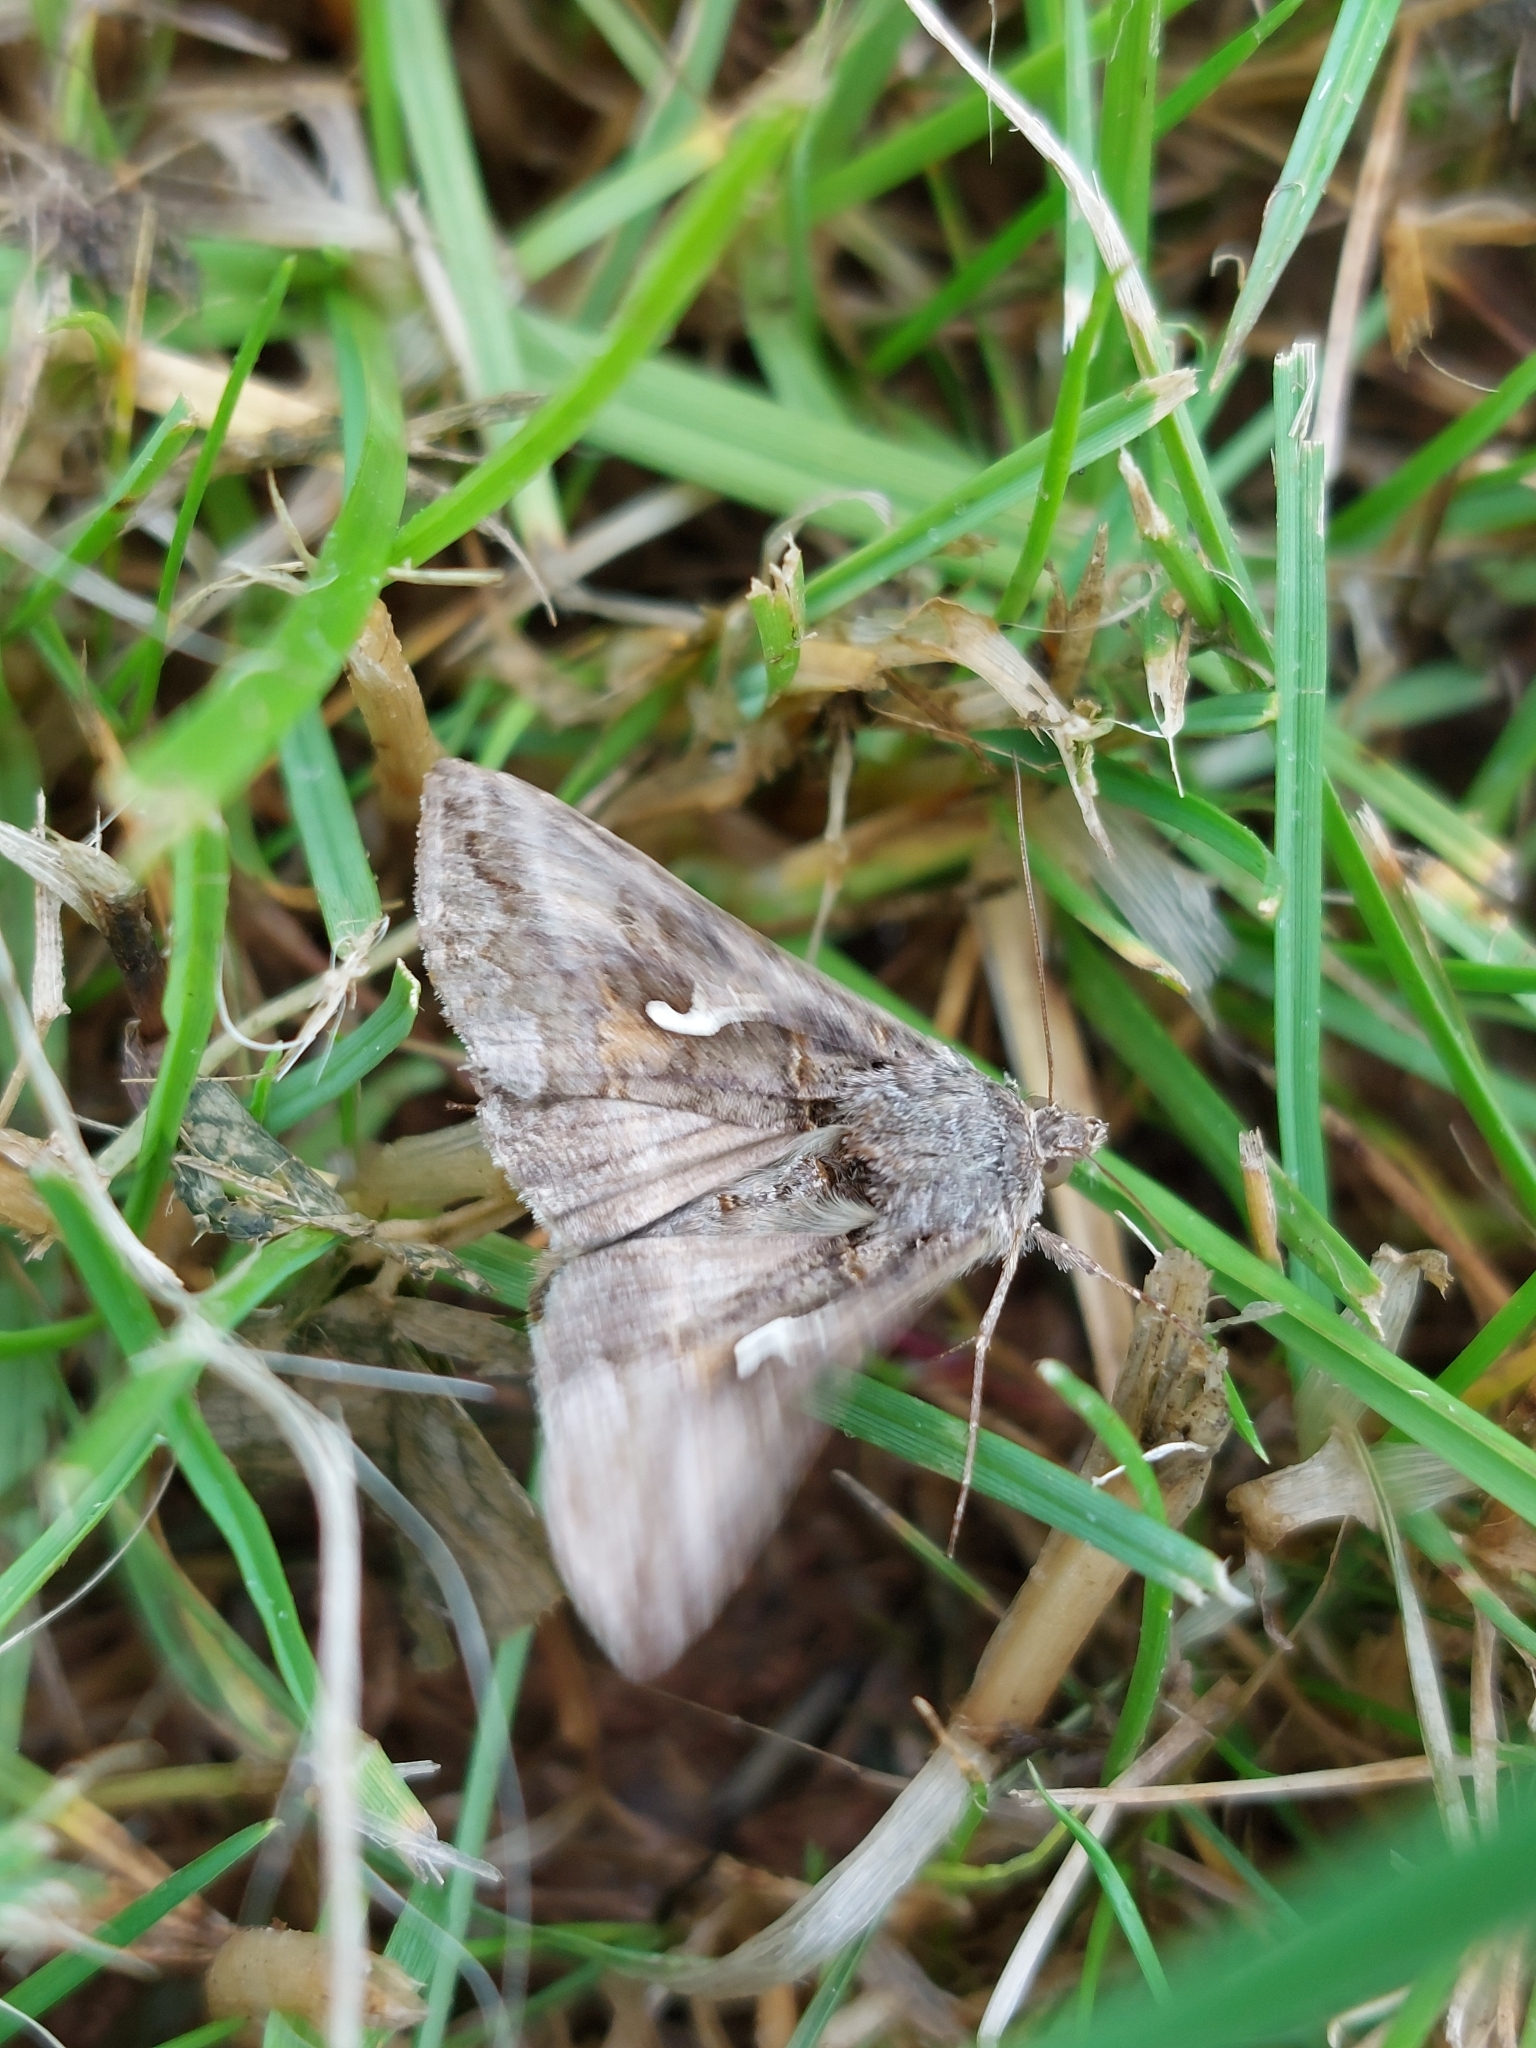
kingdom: Animalia
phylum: Arthropoda
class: Insecta
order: Lepidoptera
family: Noctuidae
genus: Autographa
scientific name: Autographa gamma
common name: Silver y
